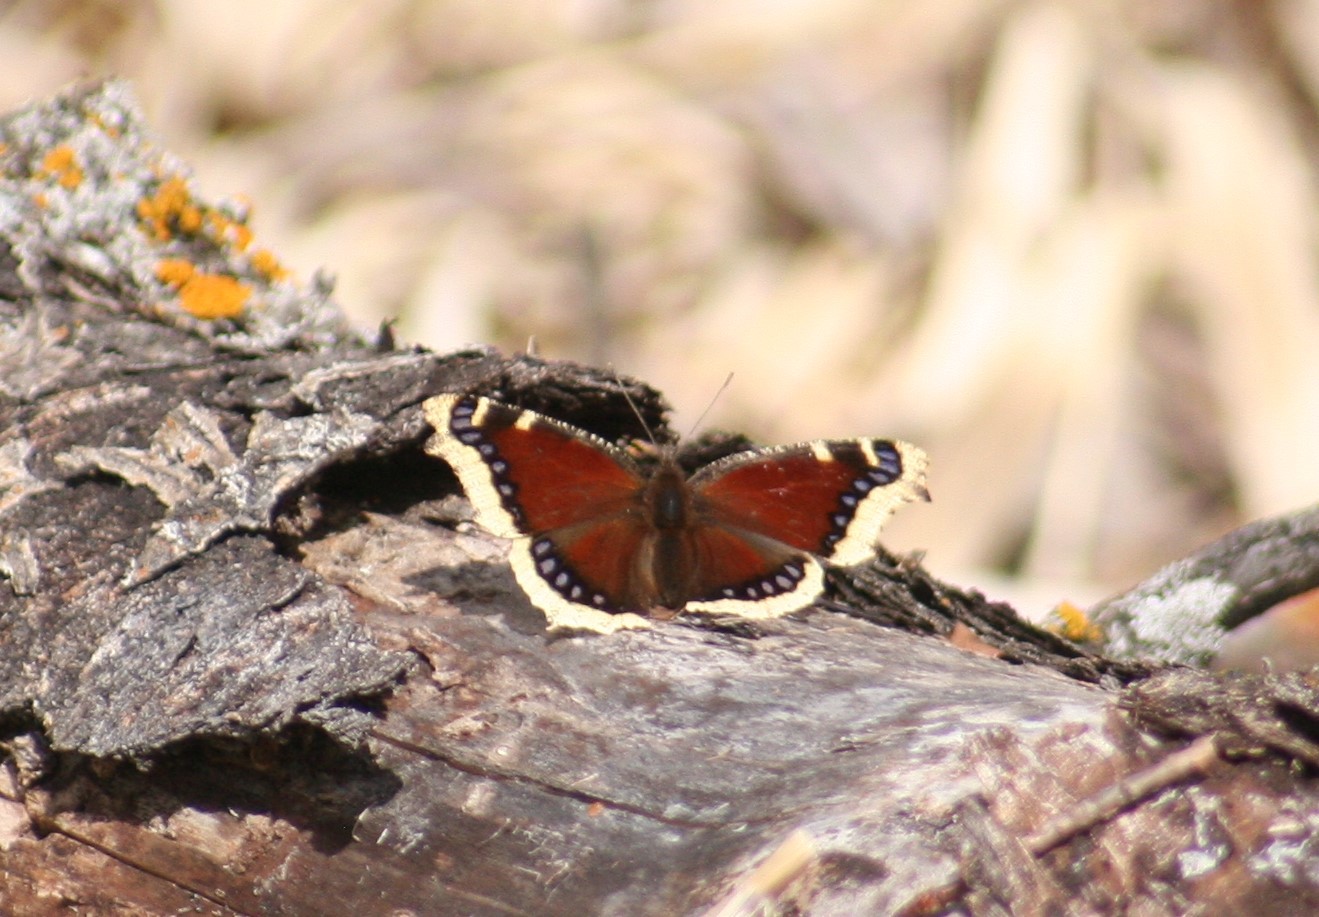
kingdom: Animalia
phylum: Arthropoda
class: Insecta
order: Lepidoptera
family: Nymphalidae
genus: Nymphalis
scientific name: Nymphalis antiopa
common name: Camberwell beauty
